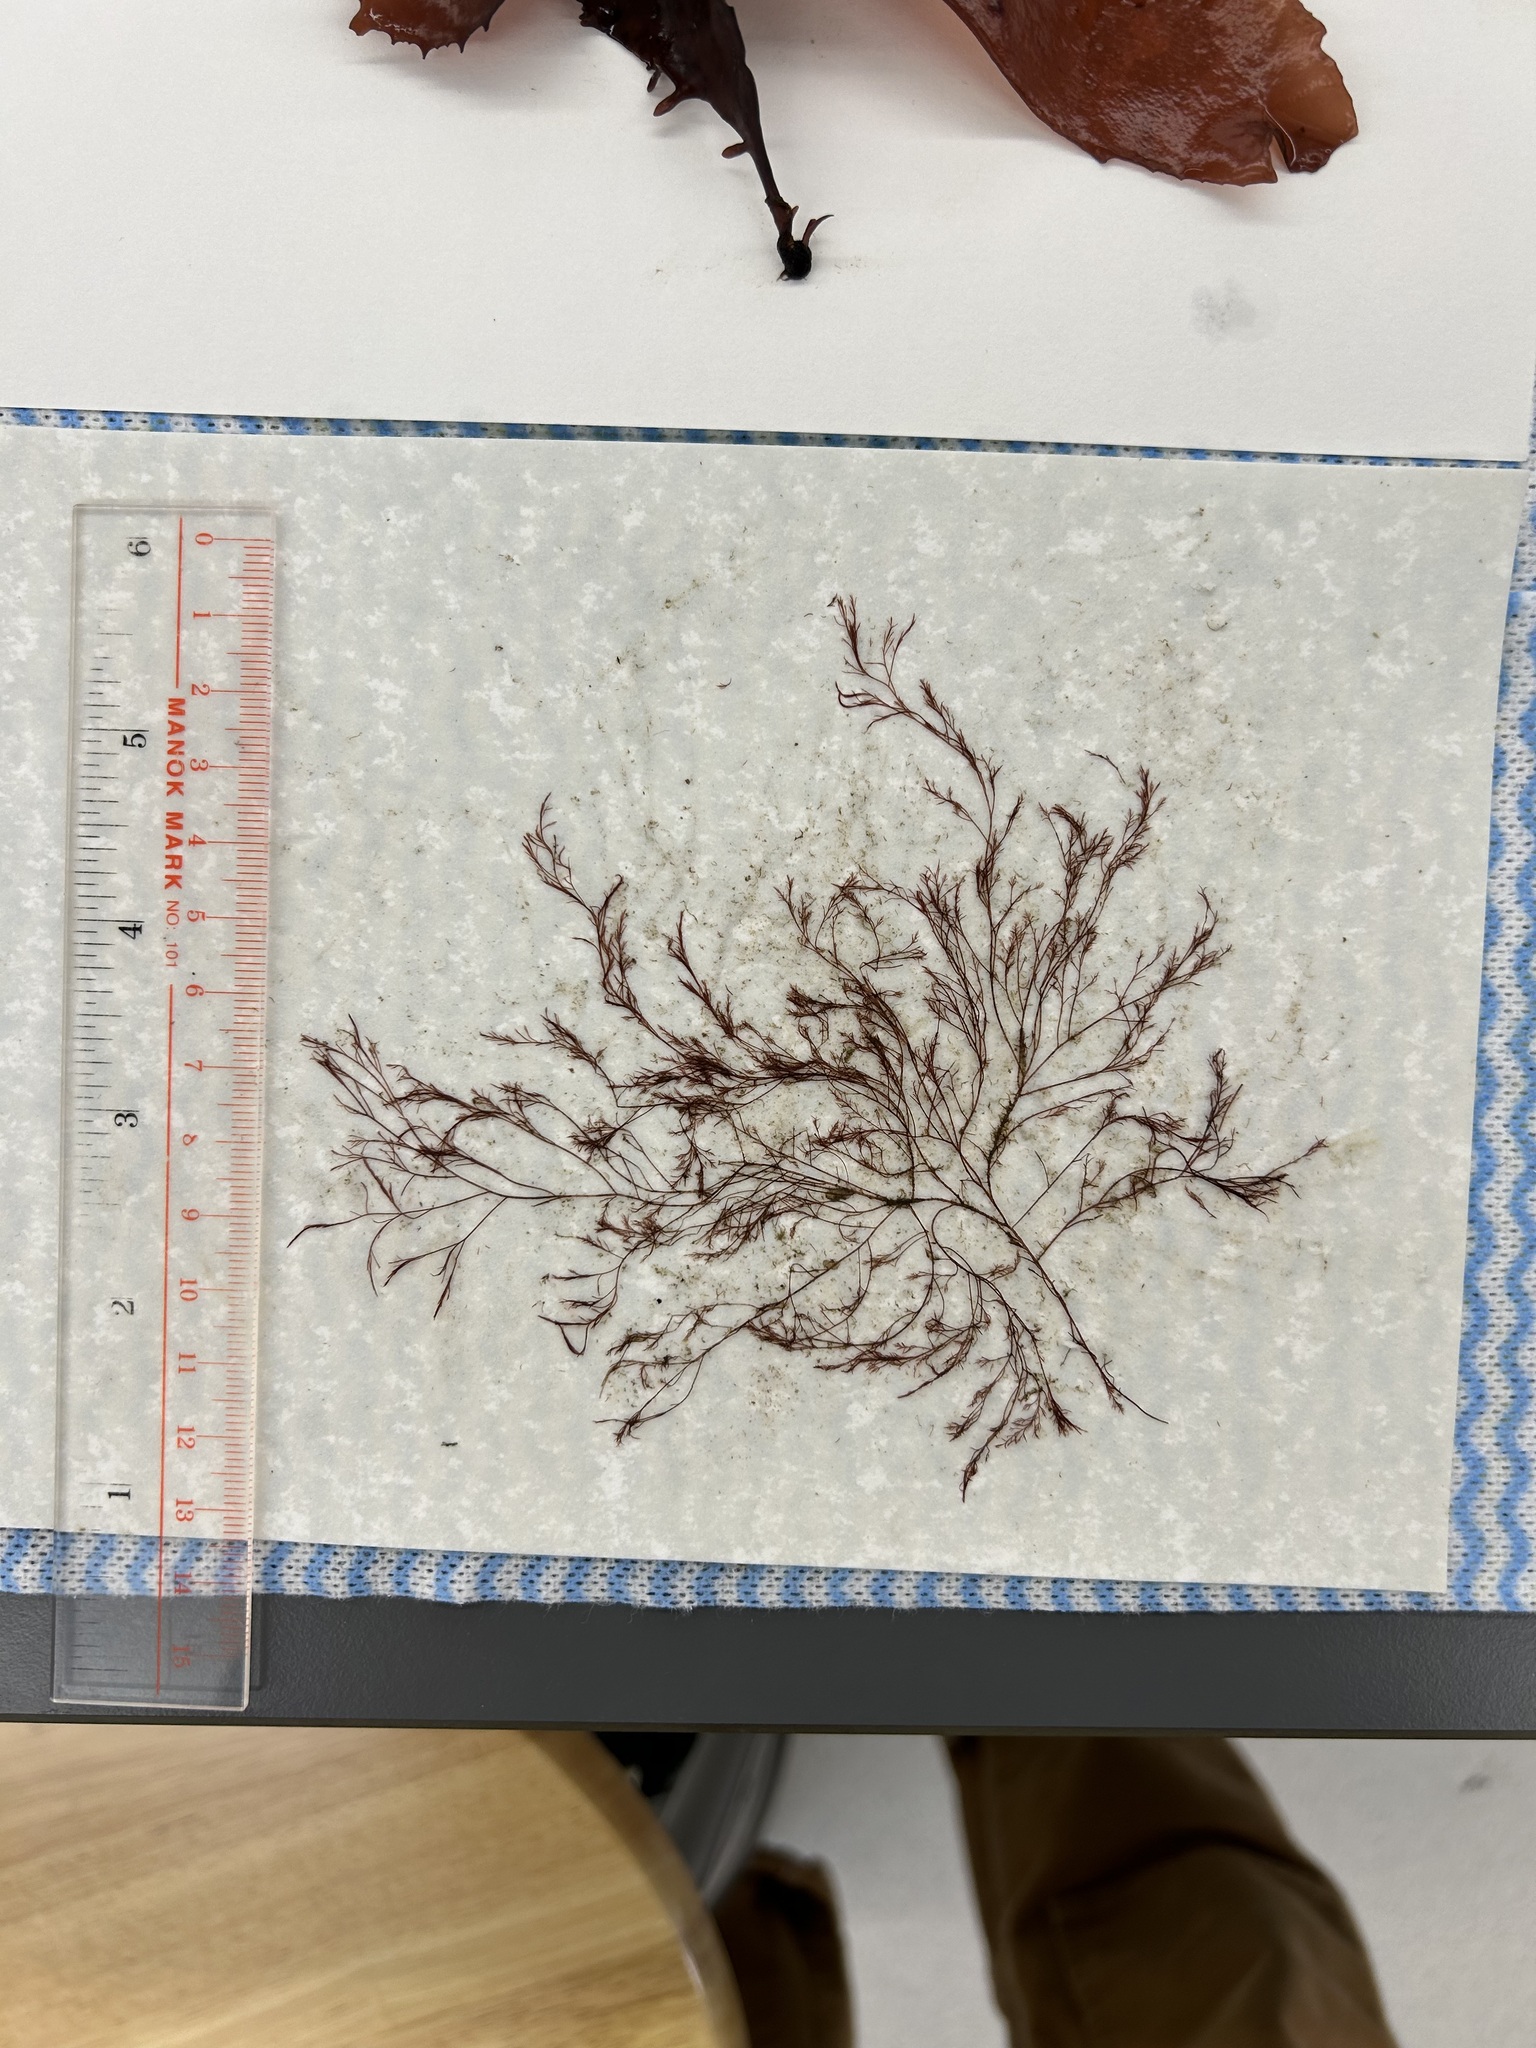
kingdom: Plantae
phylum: Rhodophyta
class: Florideophyceae
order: Ceramiales
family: Rhodomelaceae
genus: Savoiea
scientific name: Savoiea robusta
